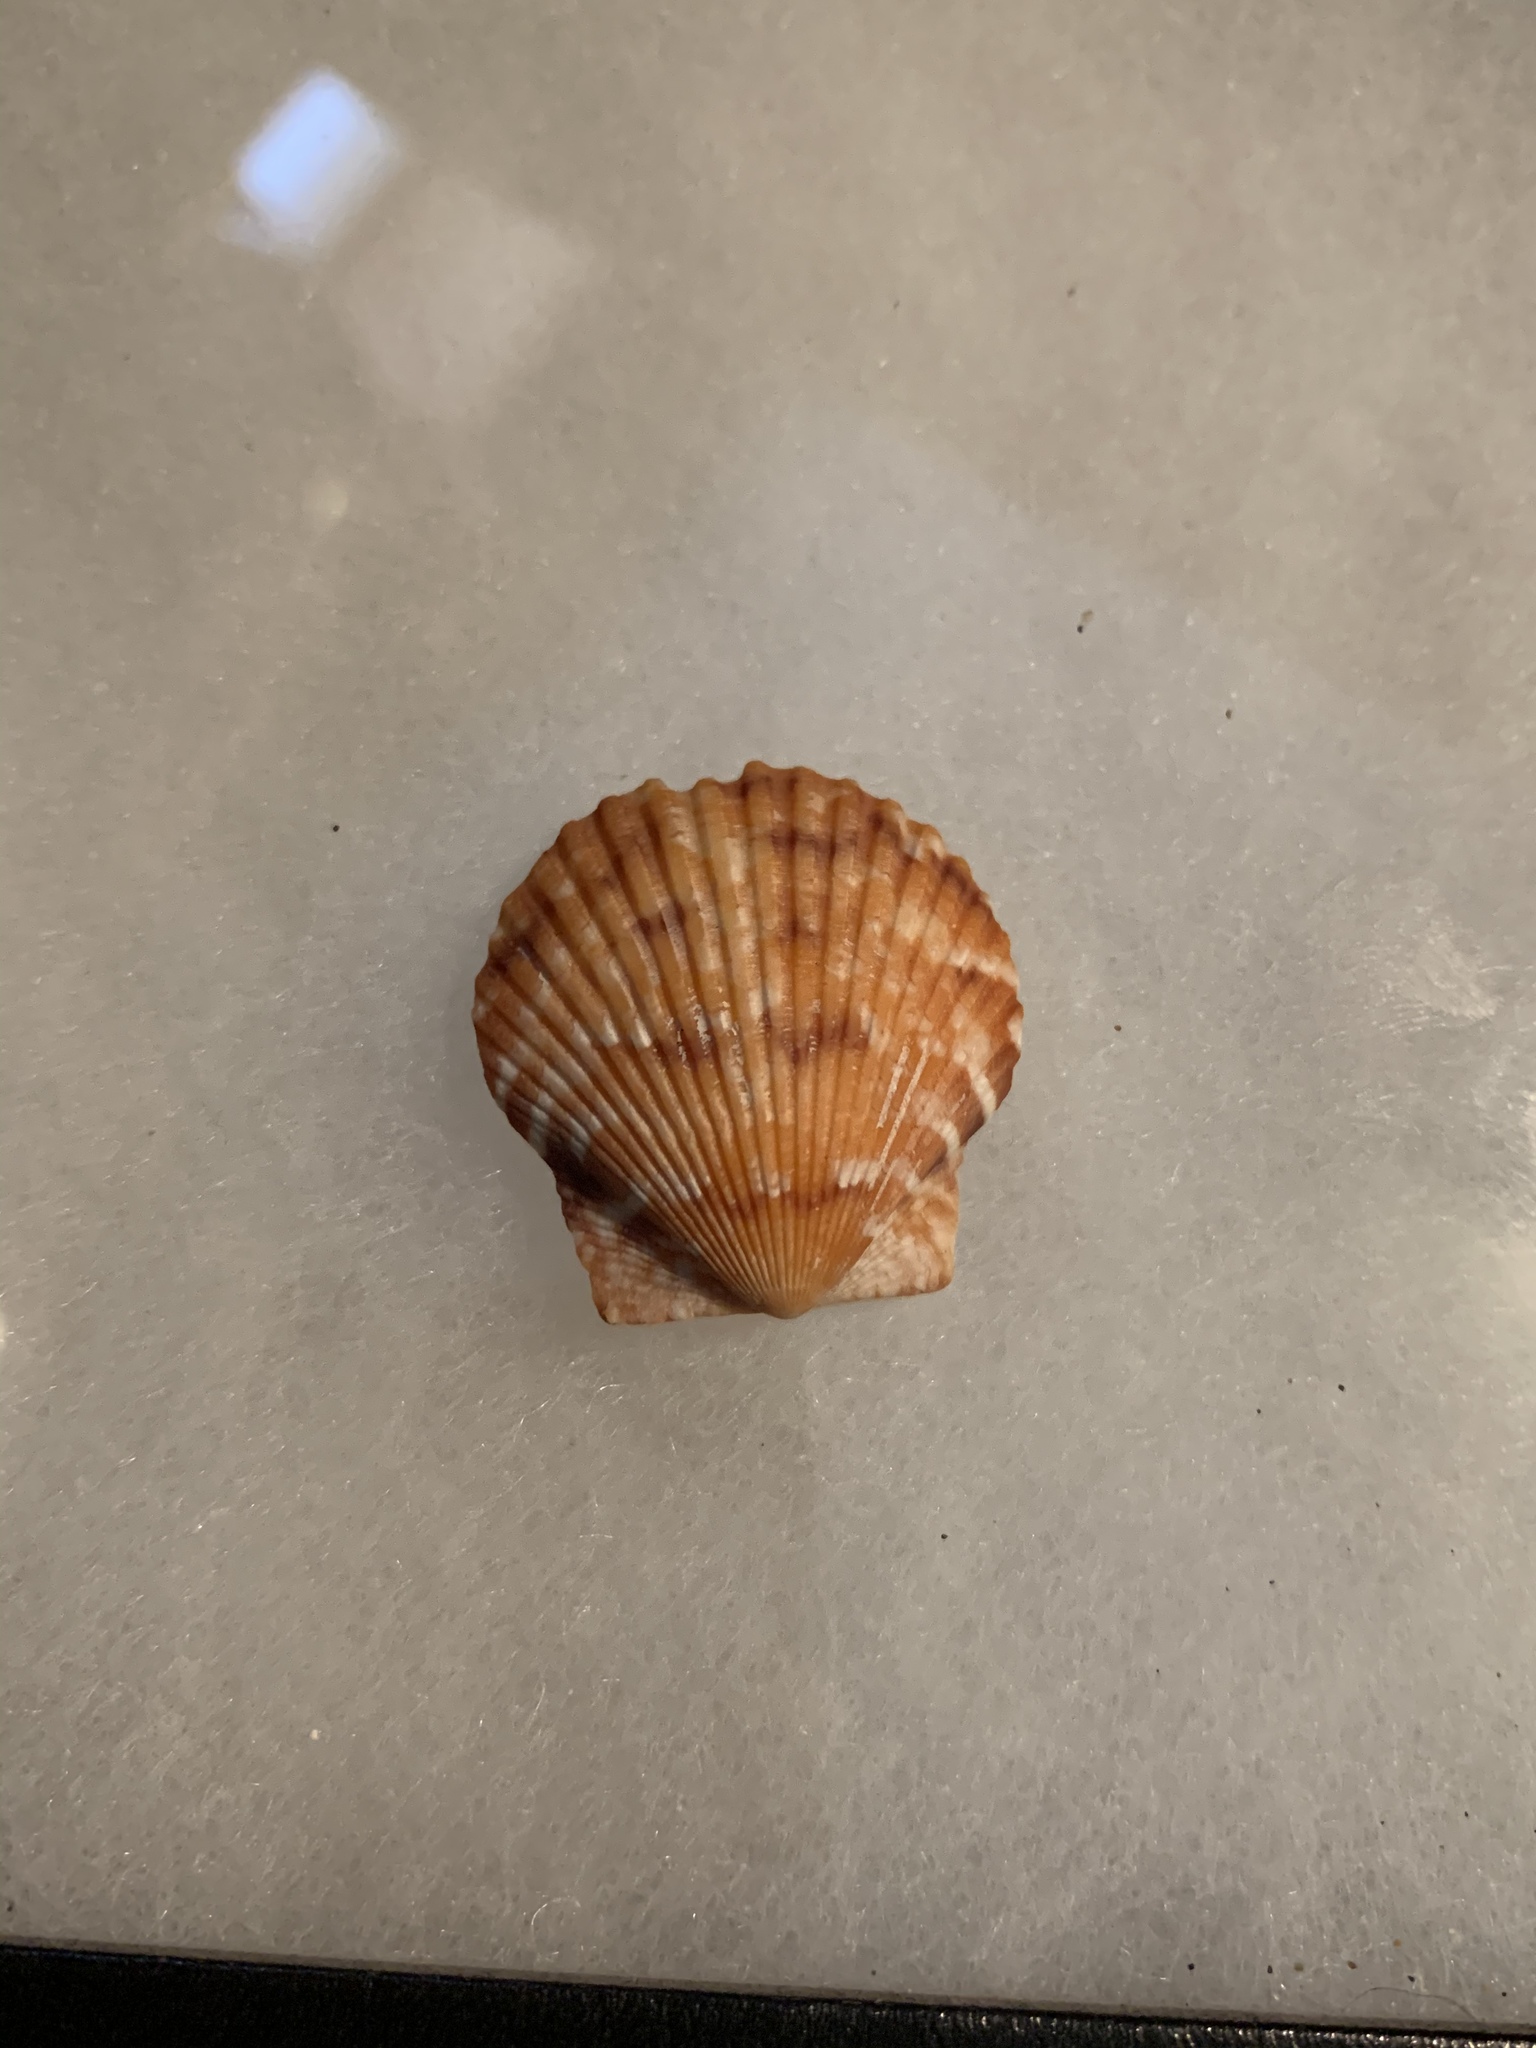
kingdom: Animalia
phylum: Mollusca
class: Bivalvia
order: Pectinida
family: Pectinidae
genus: Argopecten
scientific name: Argopecten gibbus
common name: Atlantic calico scallop
